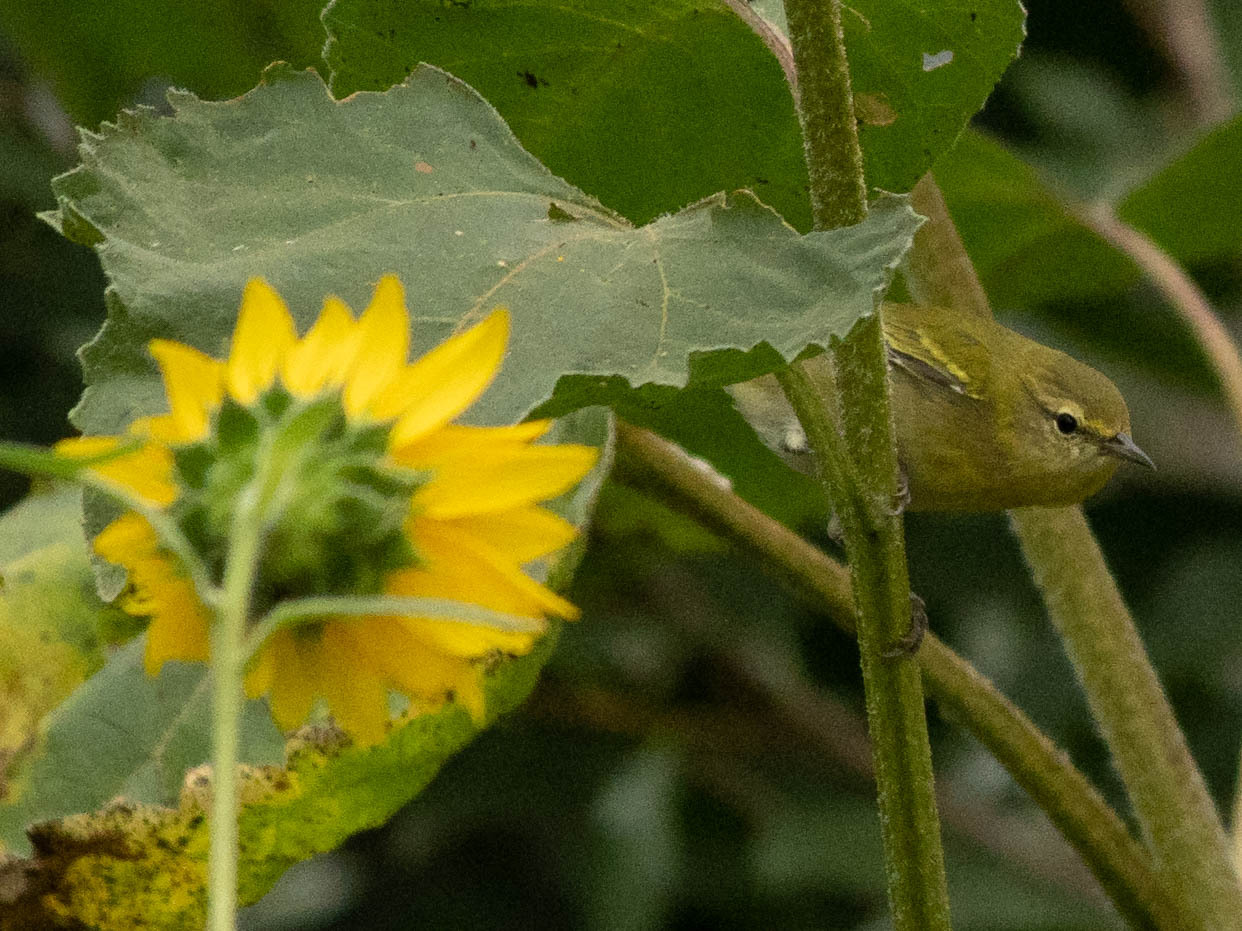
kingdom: Animalia
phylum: Chordata
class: Aves
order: Passeriformes
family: Parulidae
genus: Leiothlypis
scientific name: Leiothlypis celata
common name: Orange-crowned warbler
